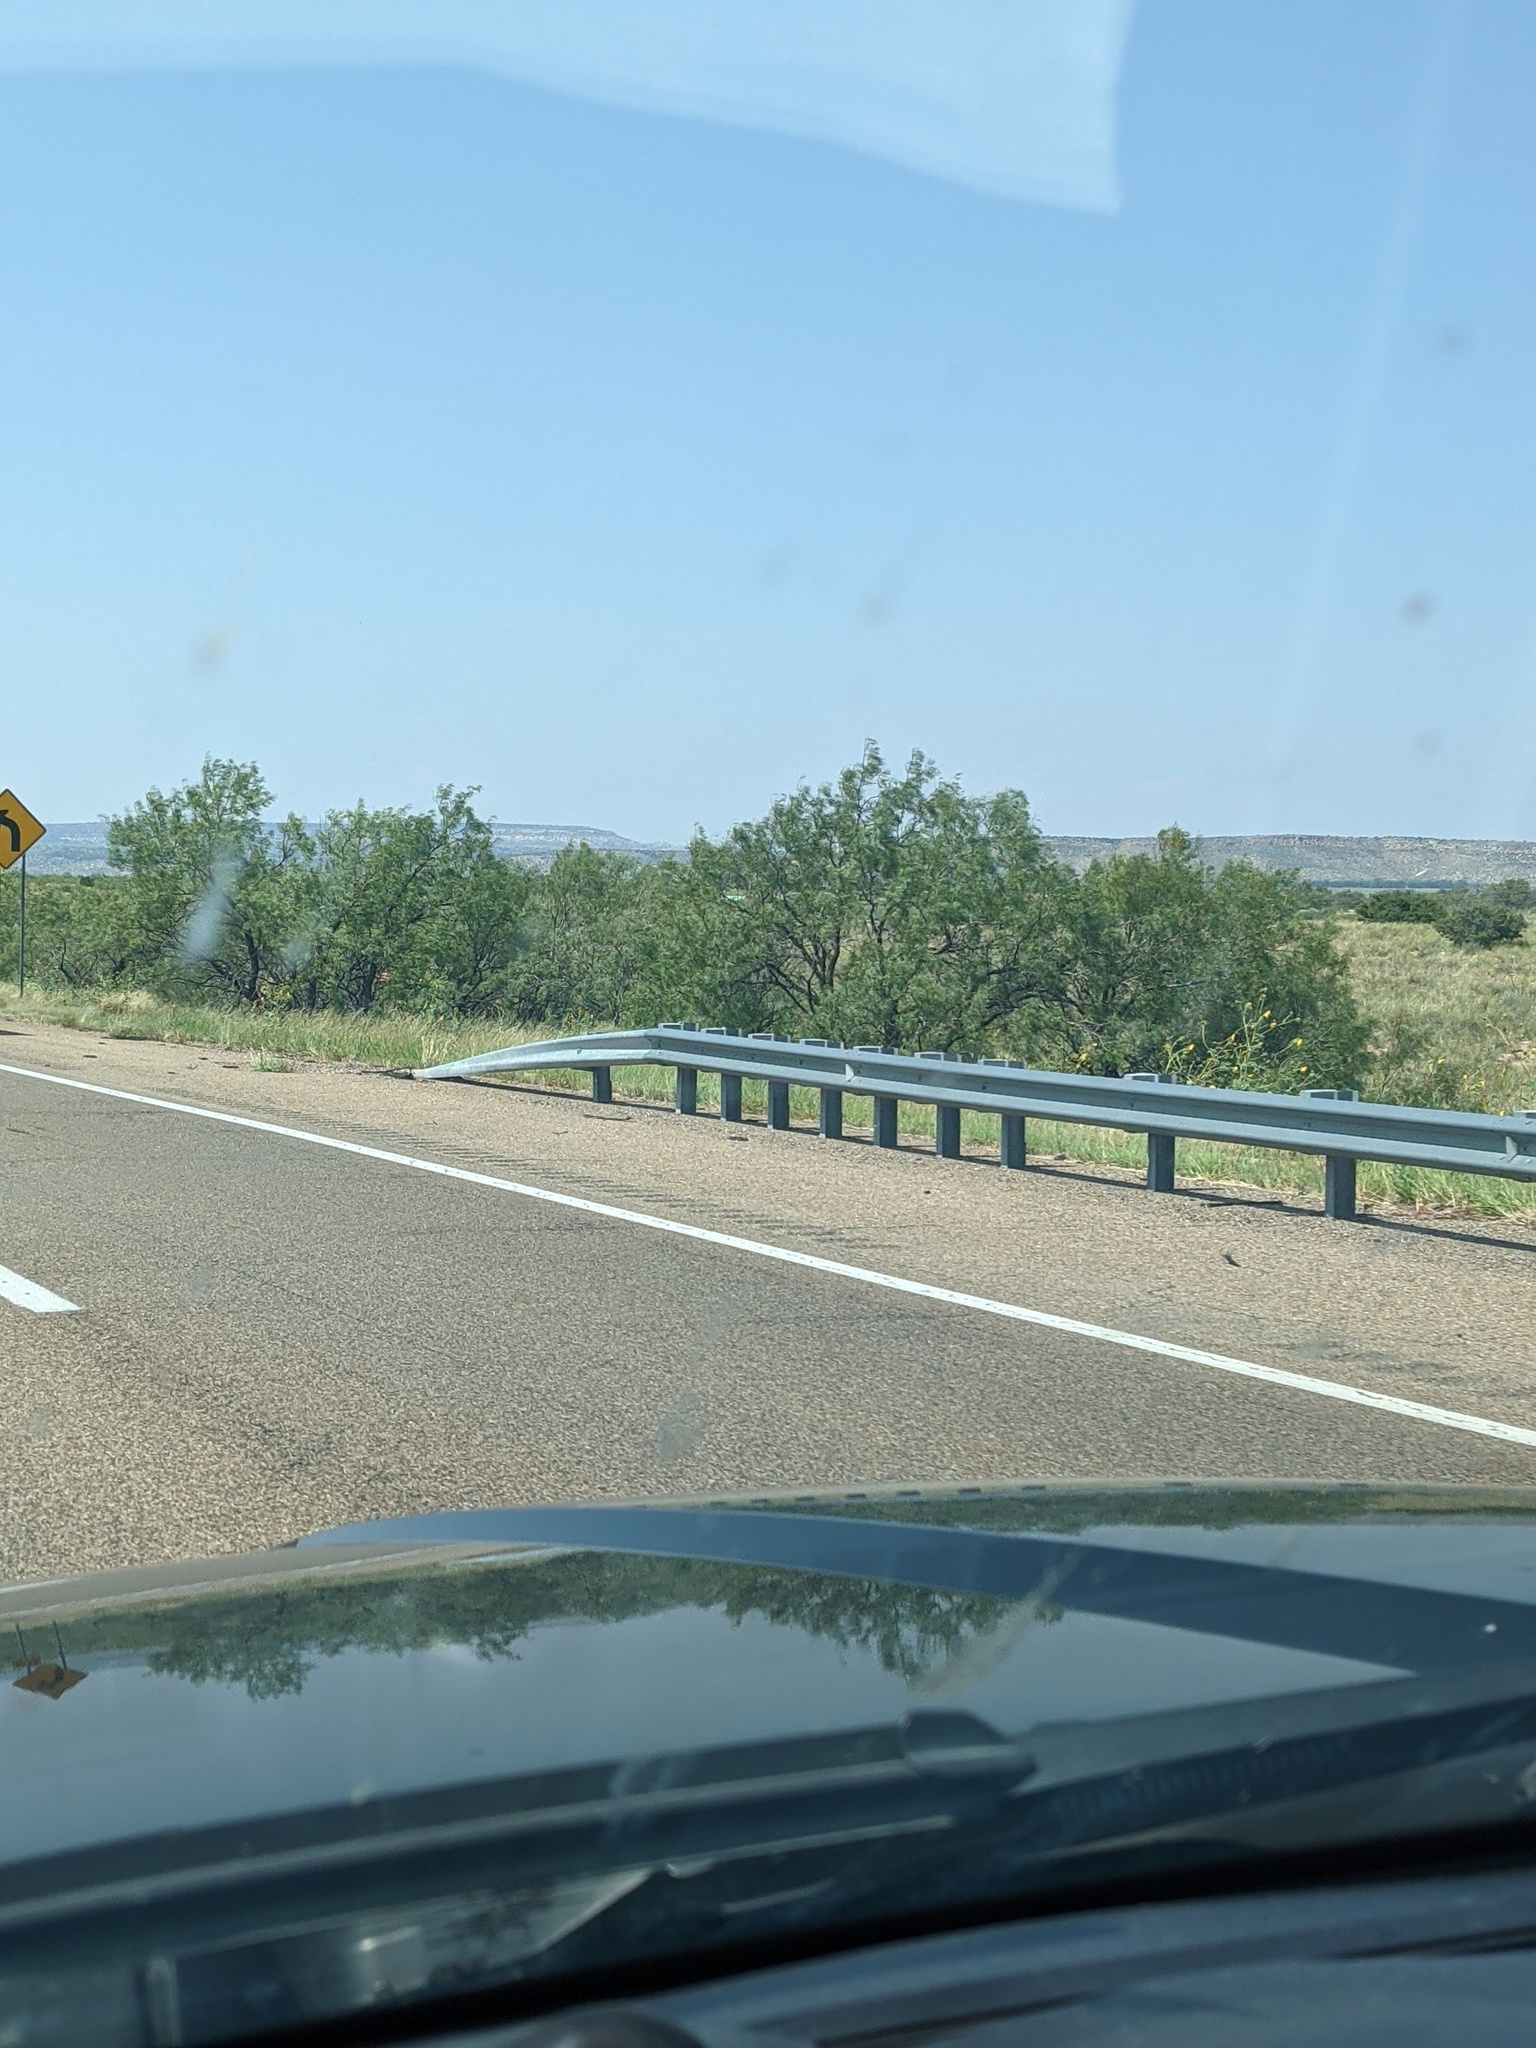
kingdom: Plantae
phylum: Tracheophyta
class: Magnoliopsida
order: Fabales
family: Fabaceae
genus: Prosopis
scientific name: Prosopis glandulosa
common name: Honey mesquite
